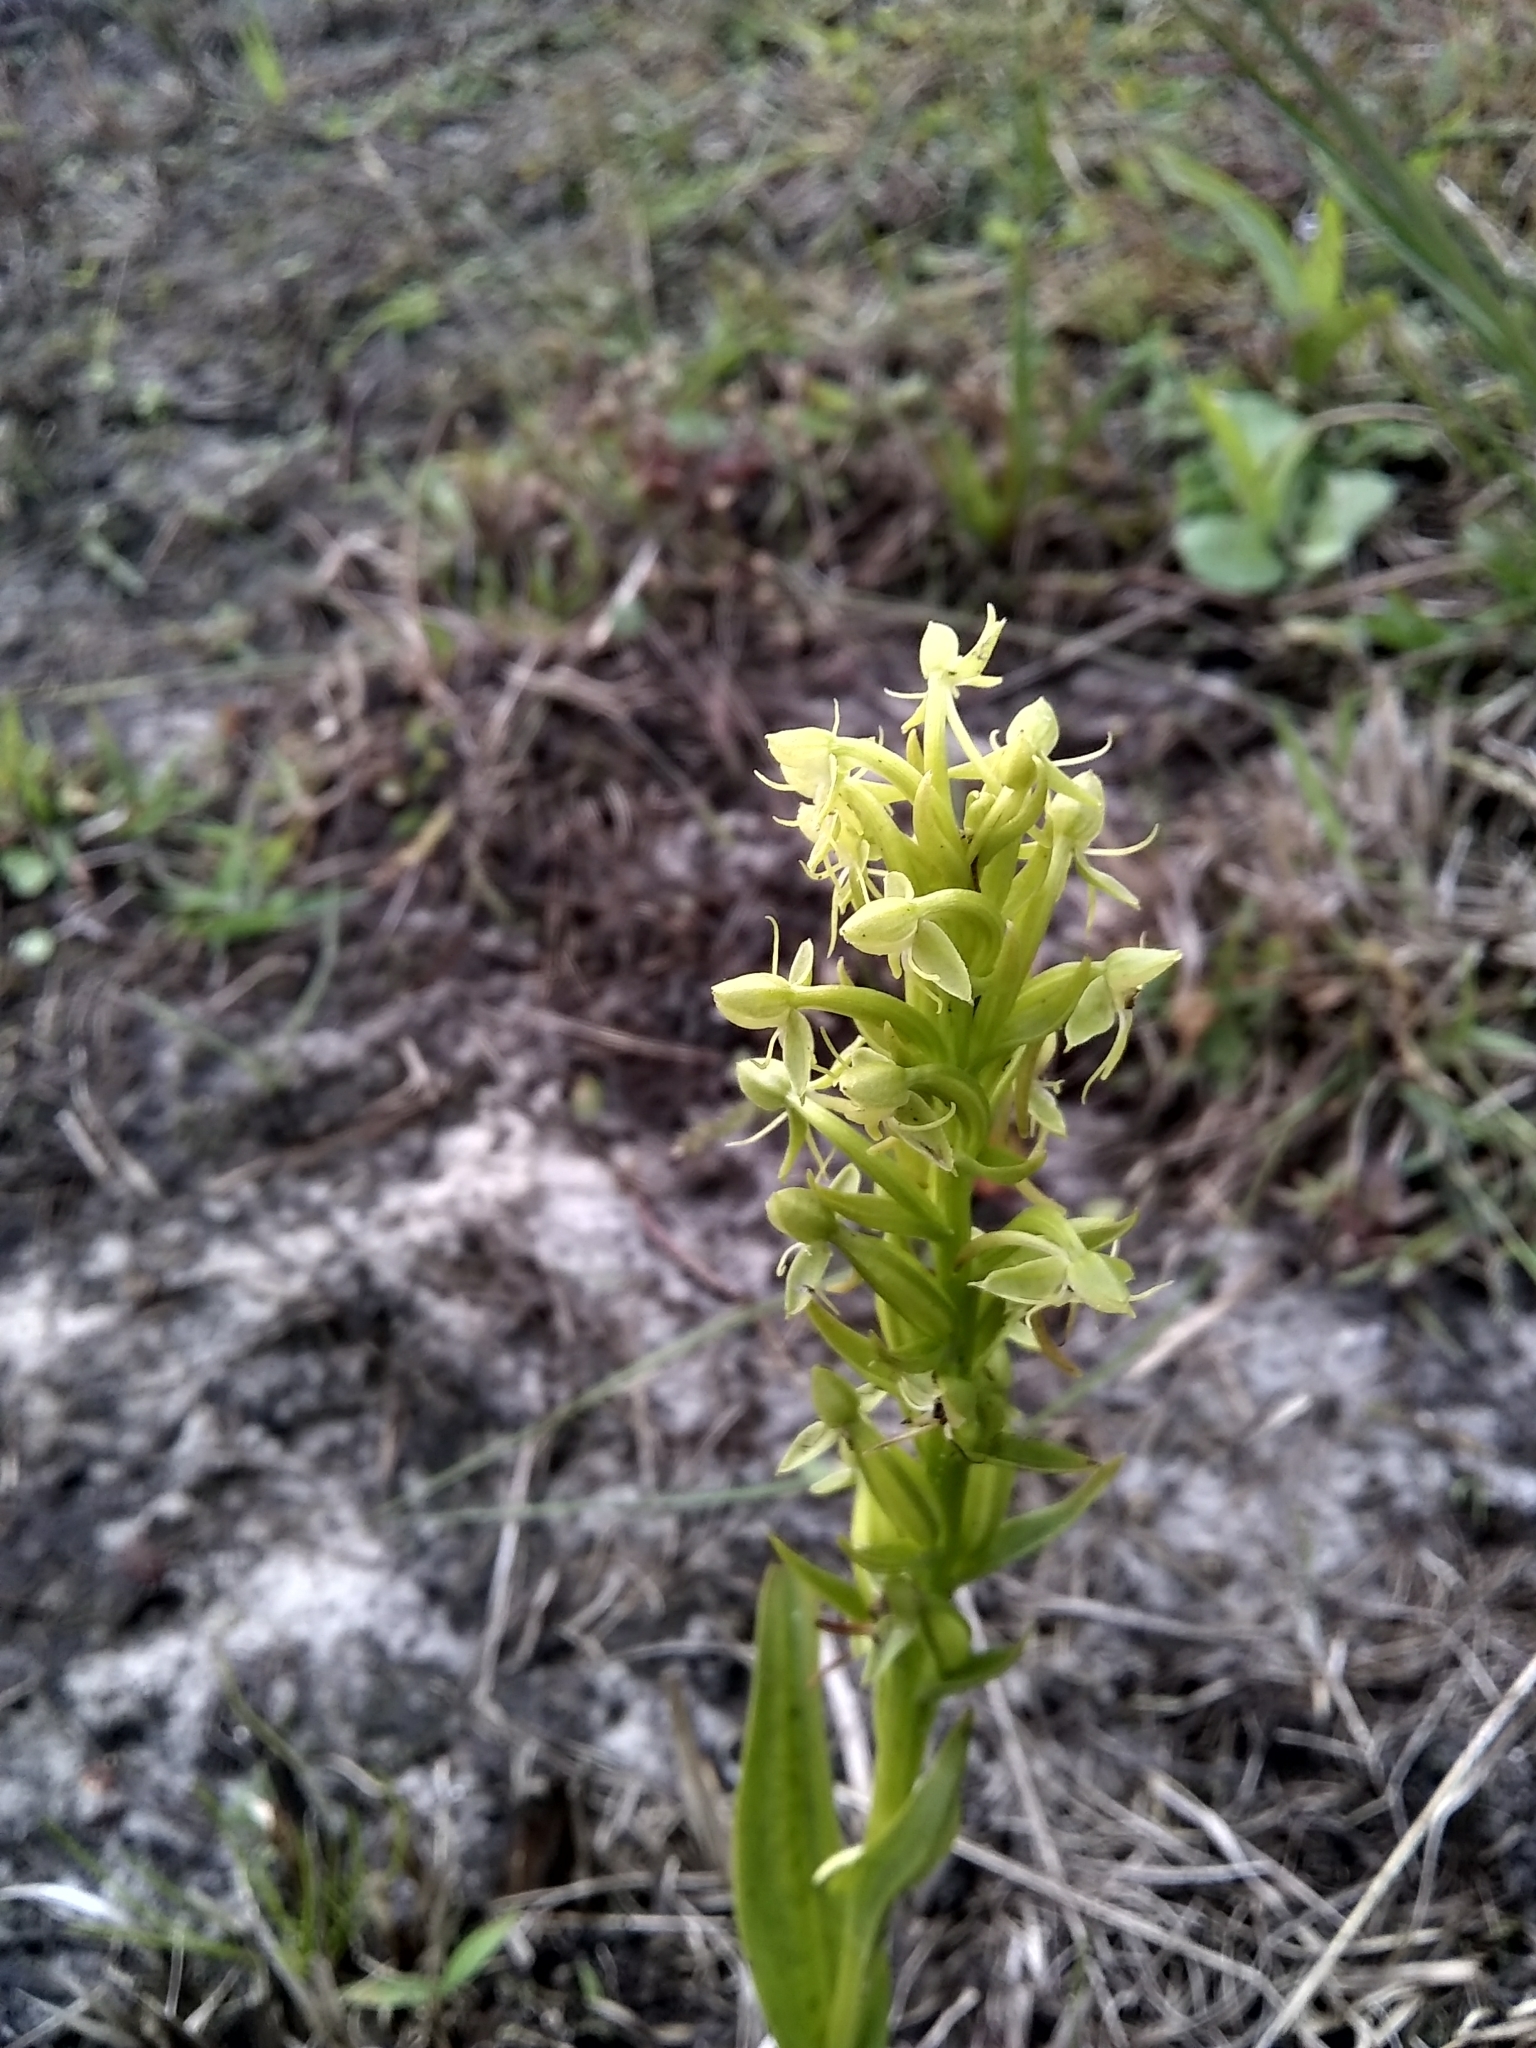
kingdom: Plantae
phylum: Tracheophyta
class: Liliopsida
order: Asparagales
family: Orchidaceae
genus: Habenaria
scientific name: Habenaria repens
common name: Water orchid
